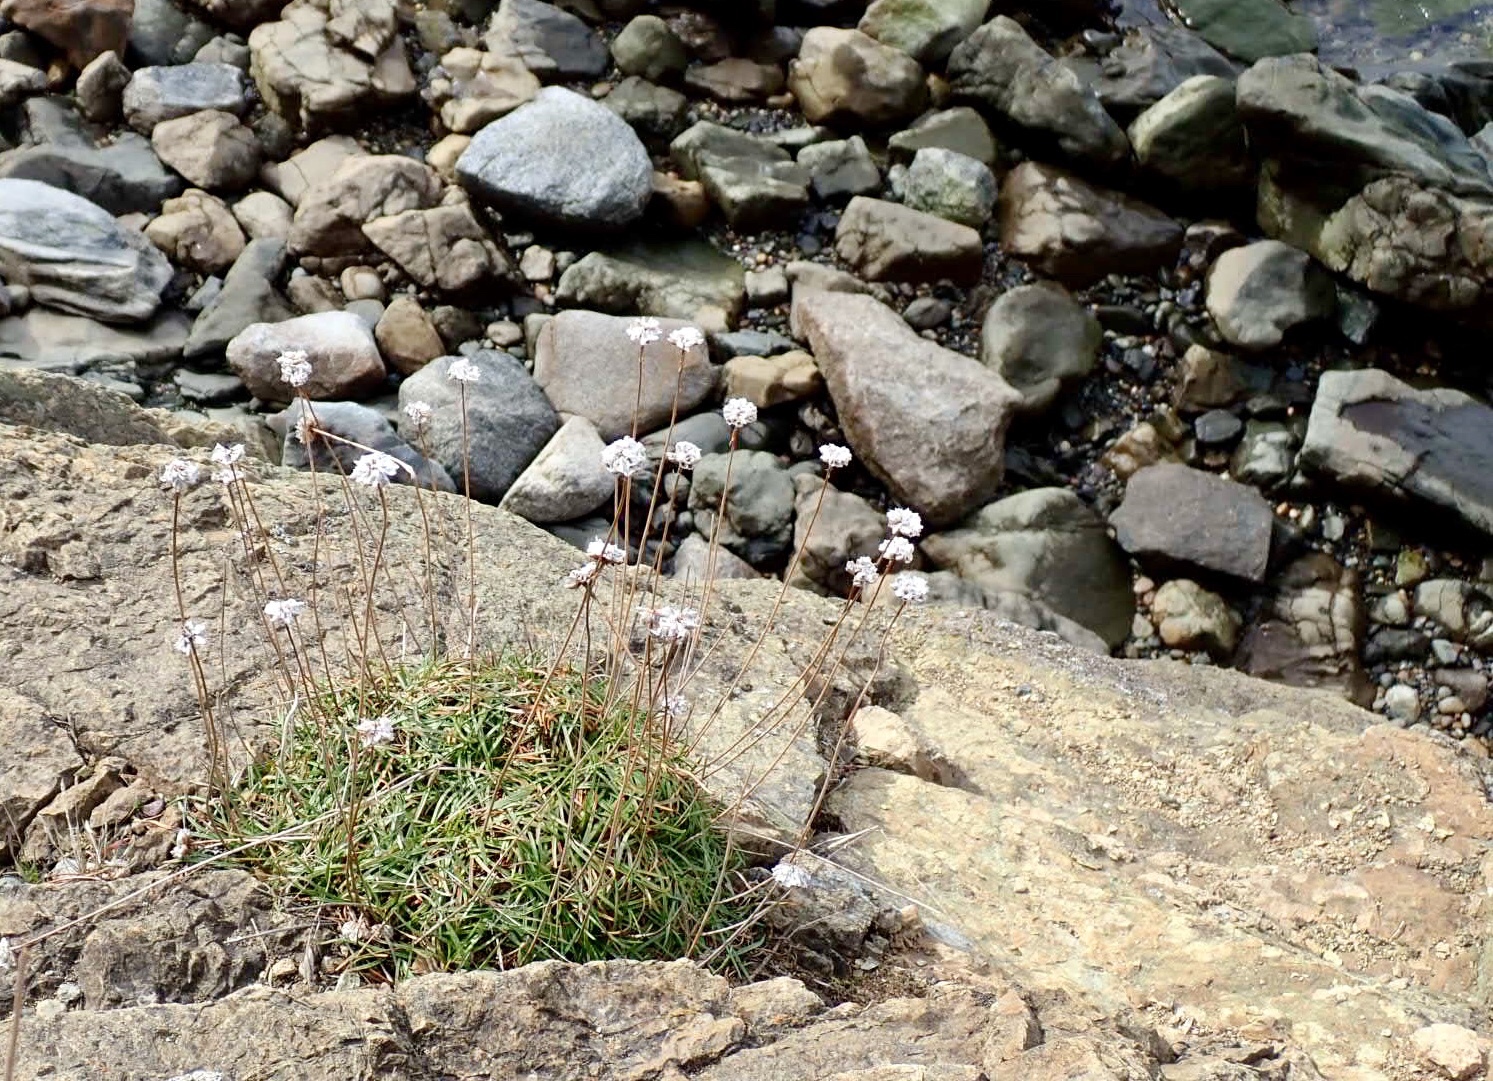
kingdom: Plantae
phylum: Tracheophyta
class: Magnoliopsida
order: Caryophyllales
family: Plumbaginaceae
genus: Armeria
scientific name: Armeria maritima
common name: Thrift
